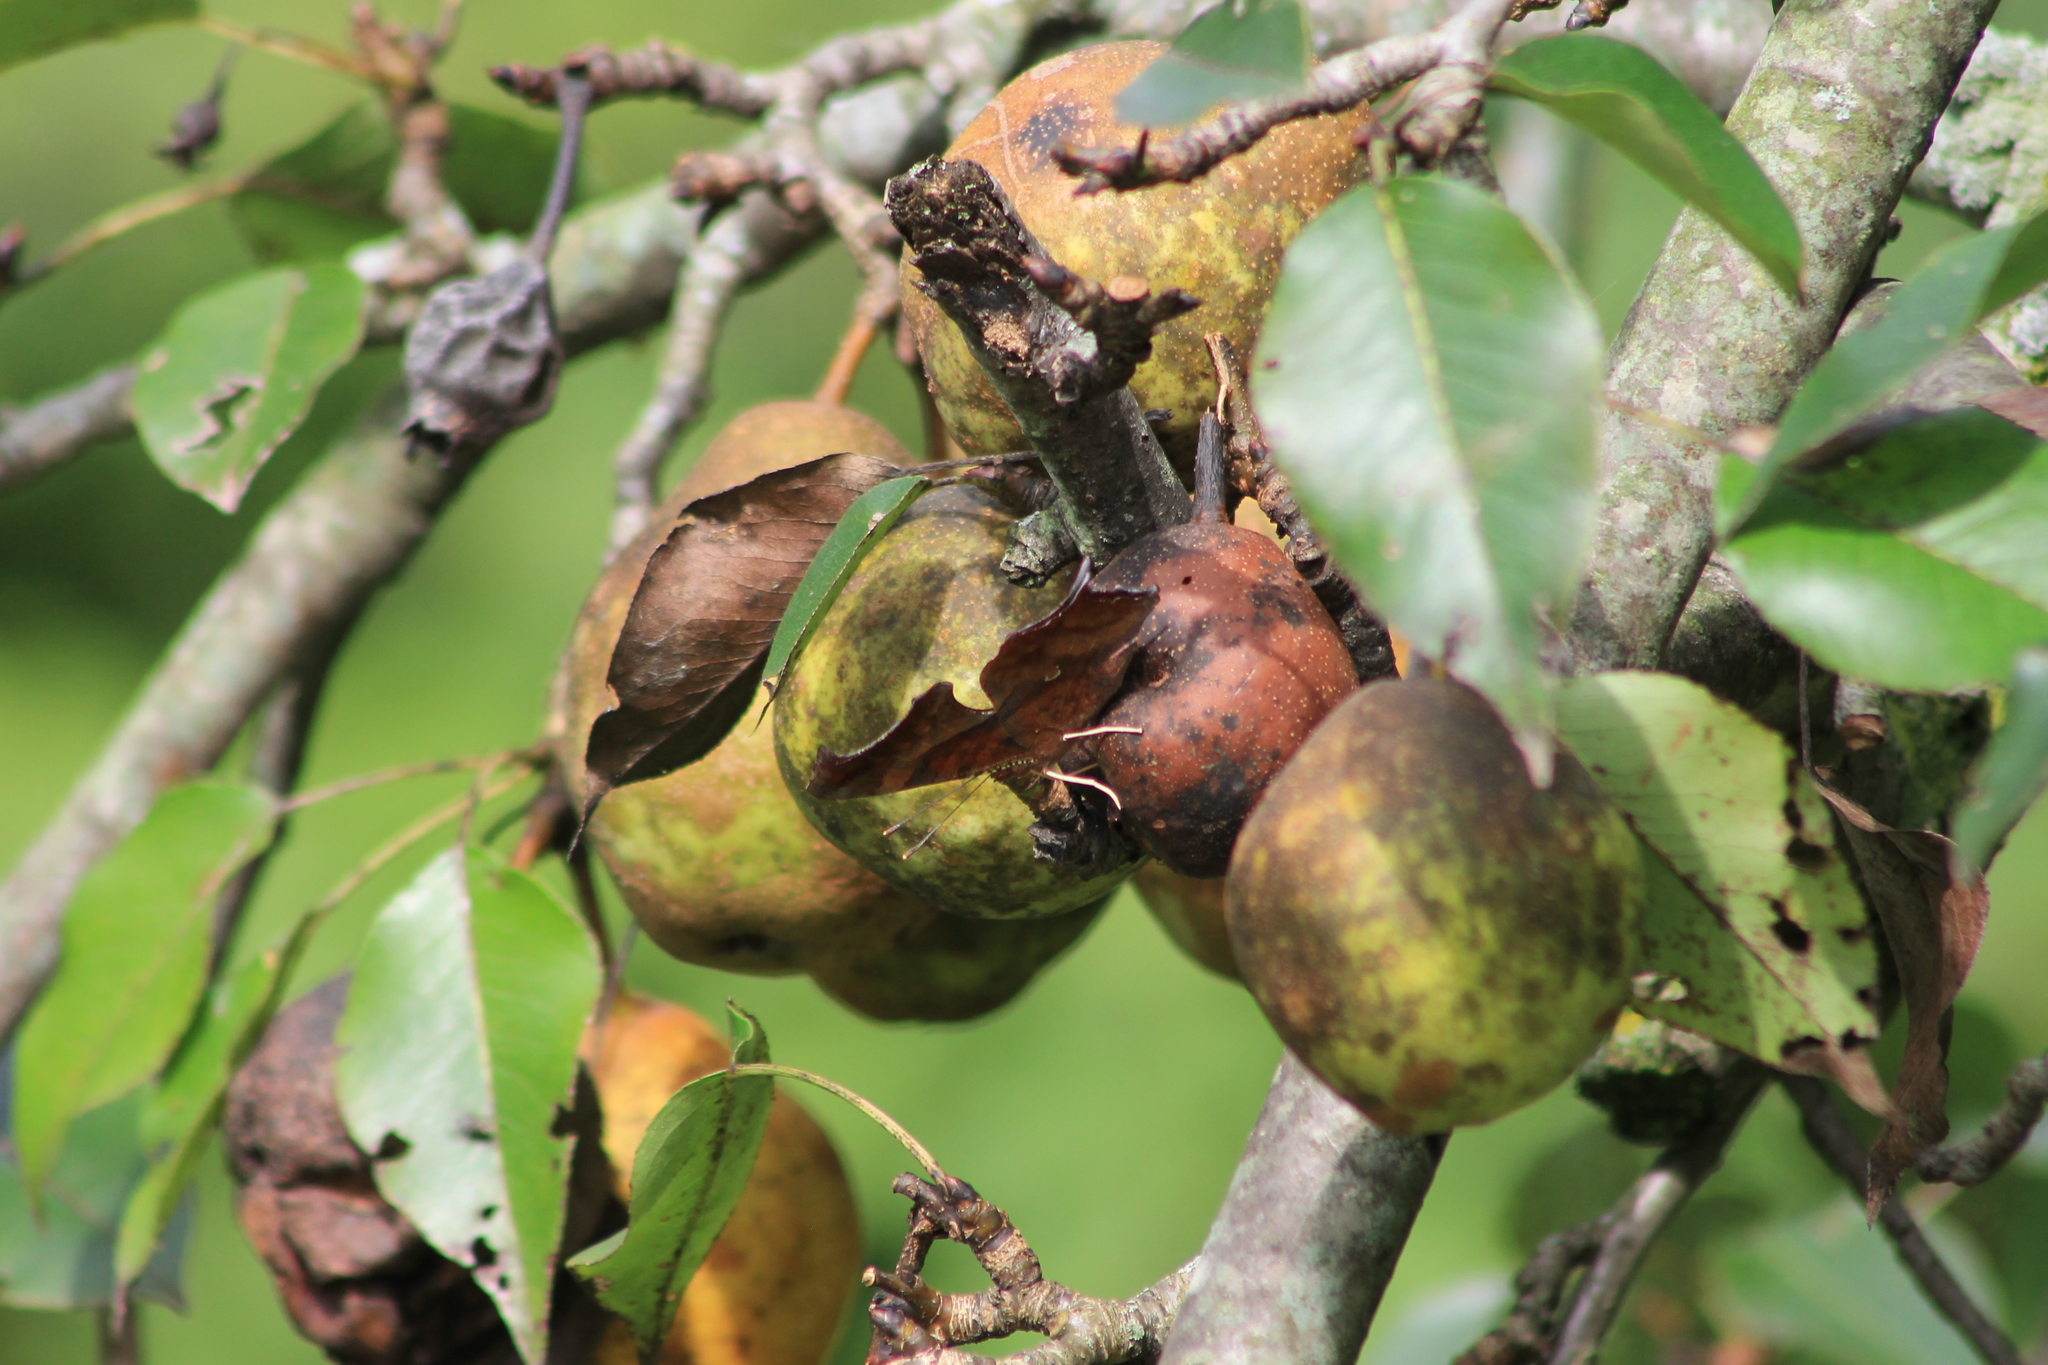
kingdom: Animalia
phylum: Arthropoda
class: Insecta
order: Lepidoptera
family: Nymphalidae
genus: Polygonia
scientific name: Polygonia interrogationis
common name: Question mark
